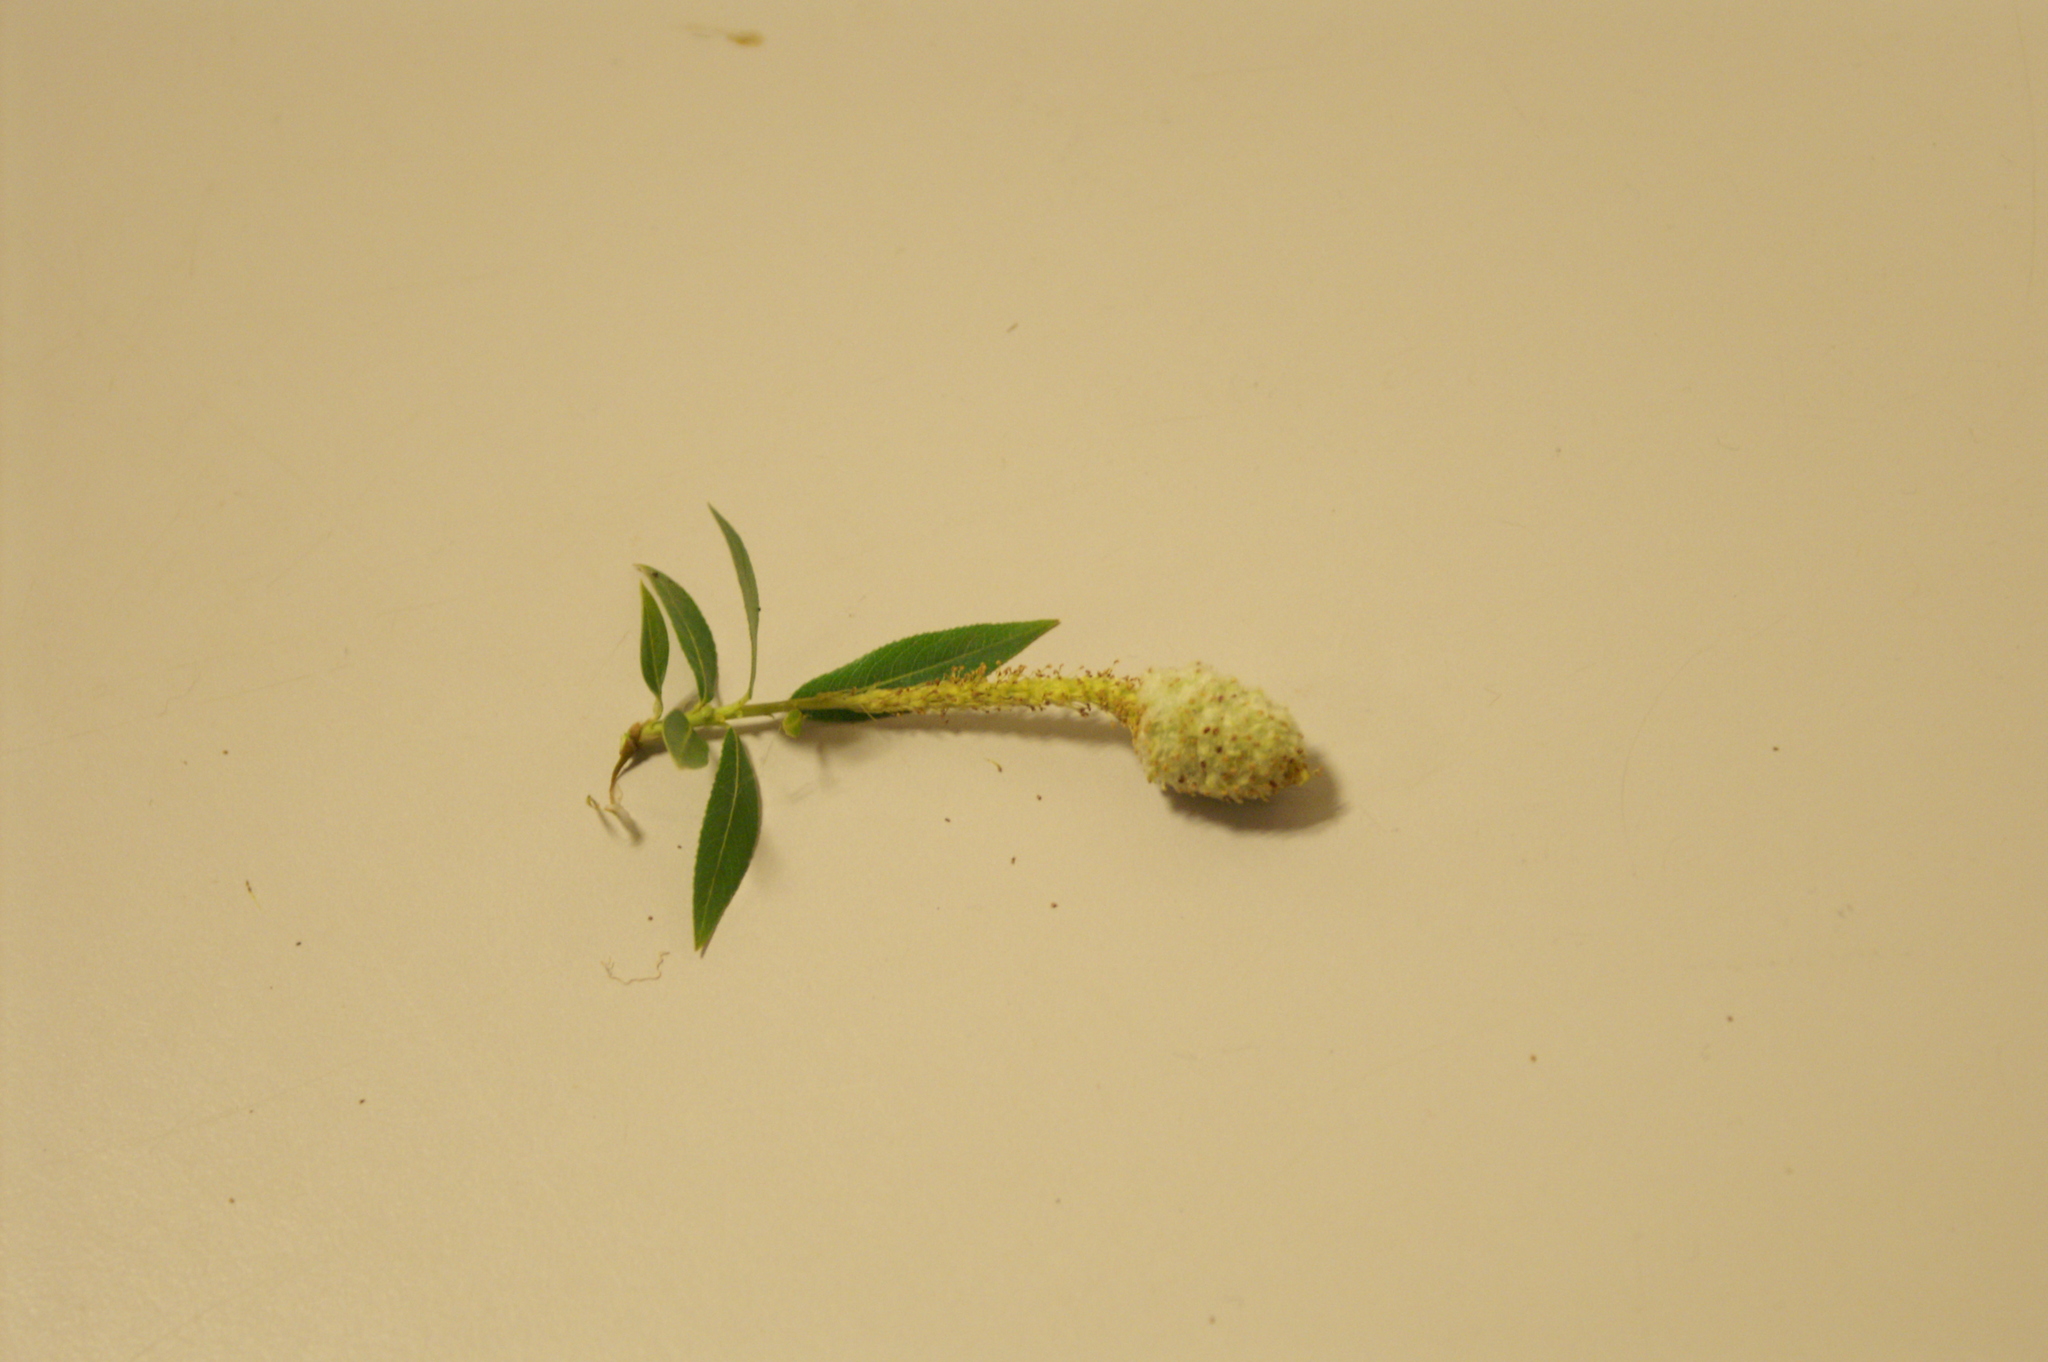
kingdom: Animalia
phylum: Arthropoda
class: Insecta
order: Diptera
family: Cecidomyiidae
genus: Rabdophaga
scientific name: Rabdophaga heterobia
